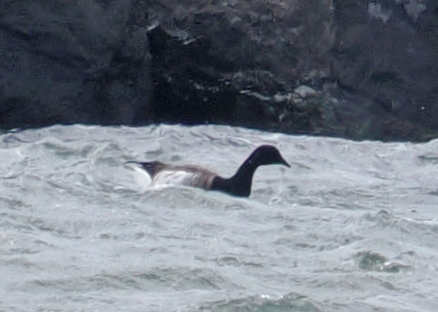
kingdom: Animalia
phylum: Chordata
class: Aves
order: Anseriformes
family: Anatidae
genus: Branta
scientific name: Branta bernicla
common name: Brant goose
